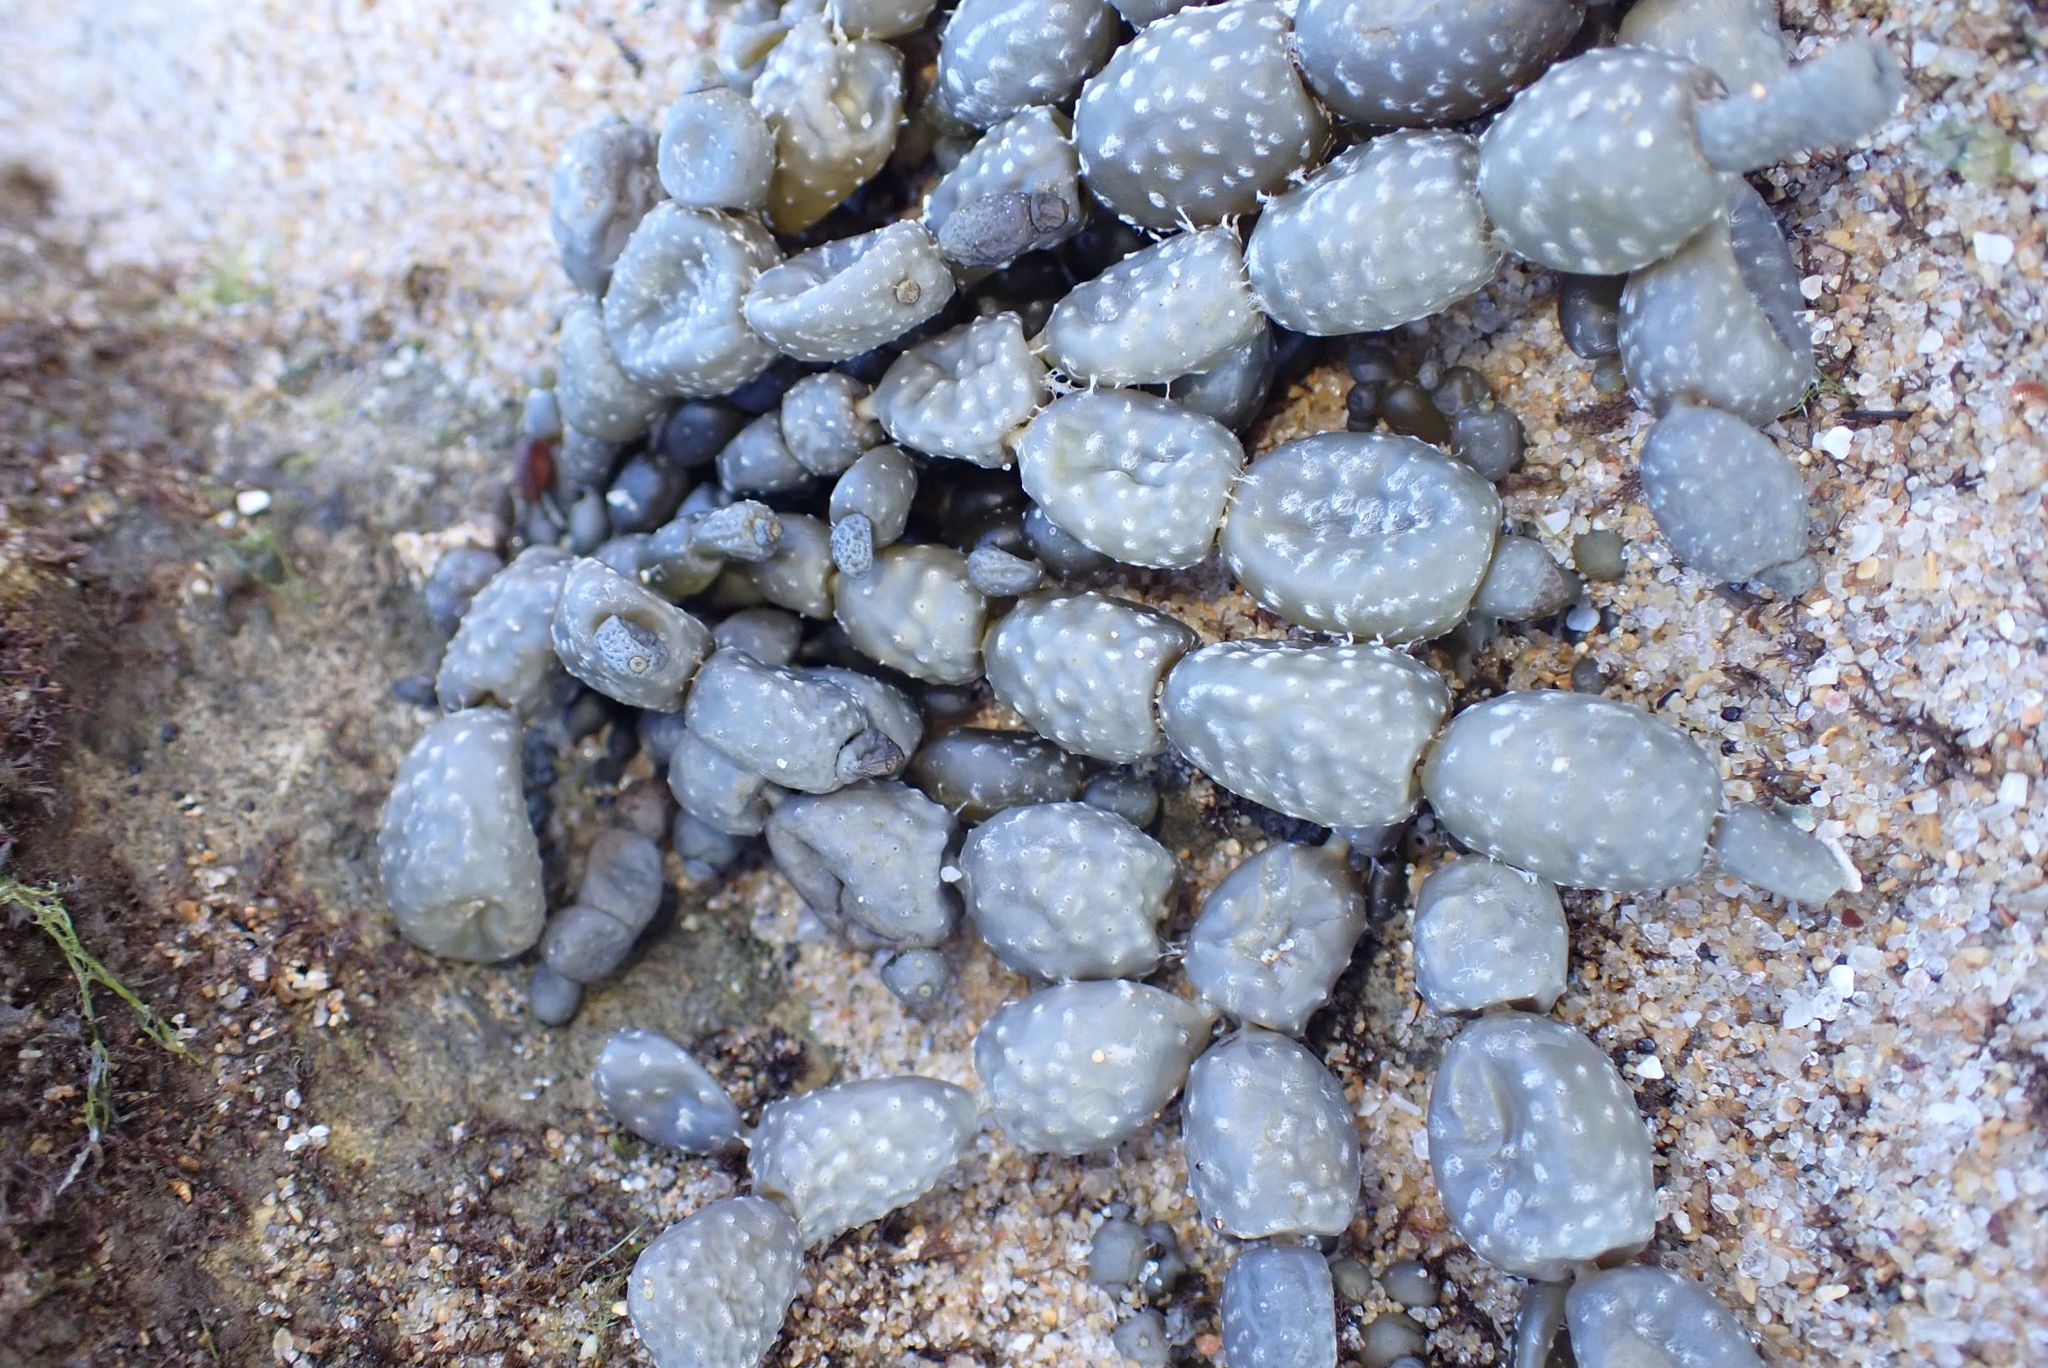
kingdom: Chromista
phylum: Ochrophyta
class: Phaeophyceae
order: Fucales
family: Hormosiraceae
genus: Hormosira
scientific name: Hormosira banksii
